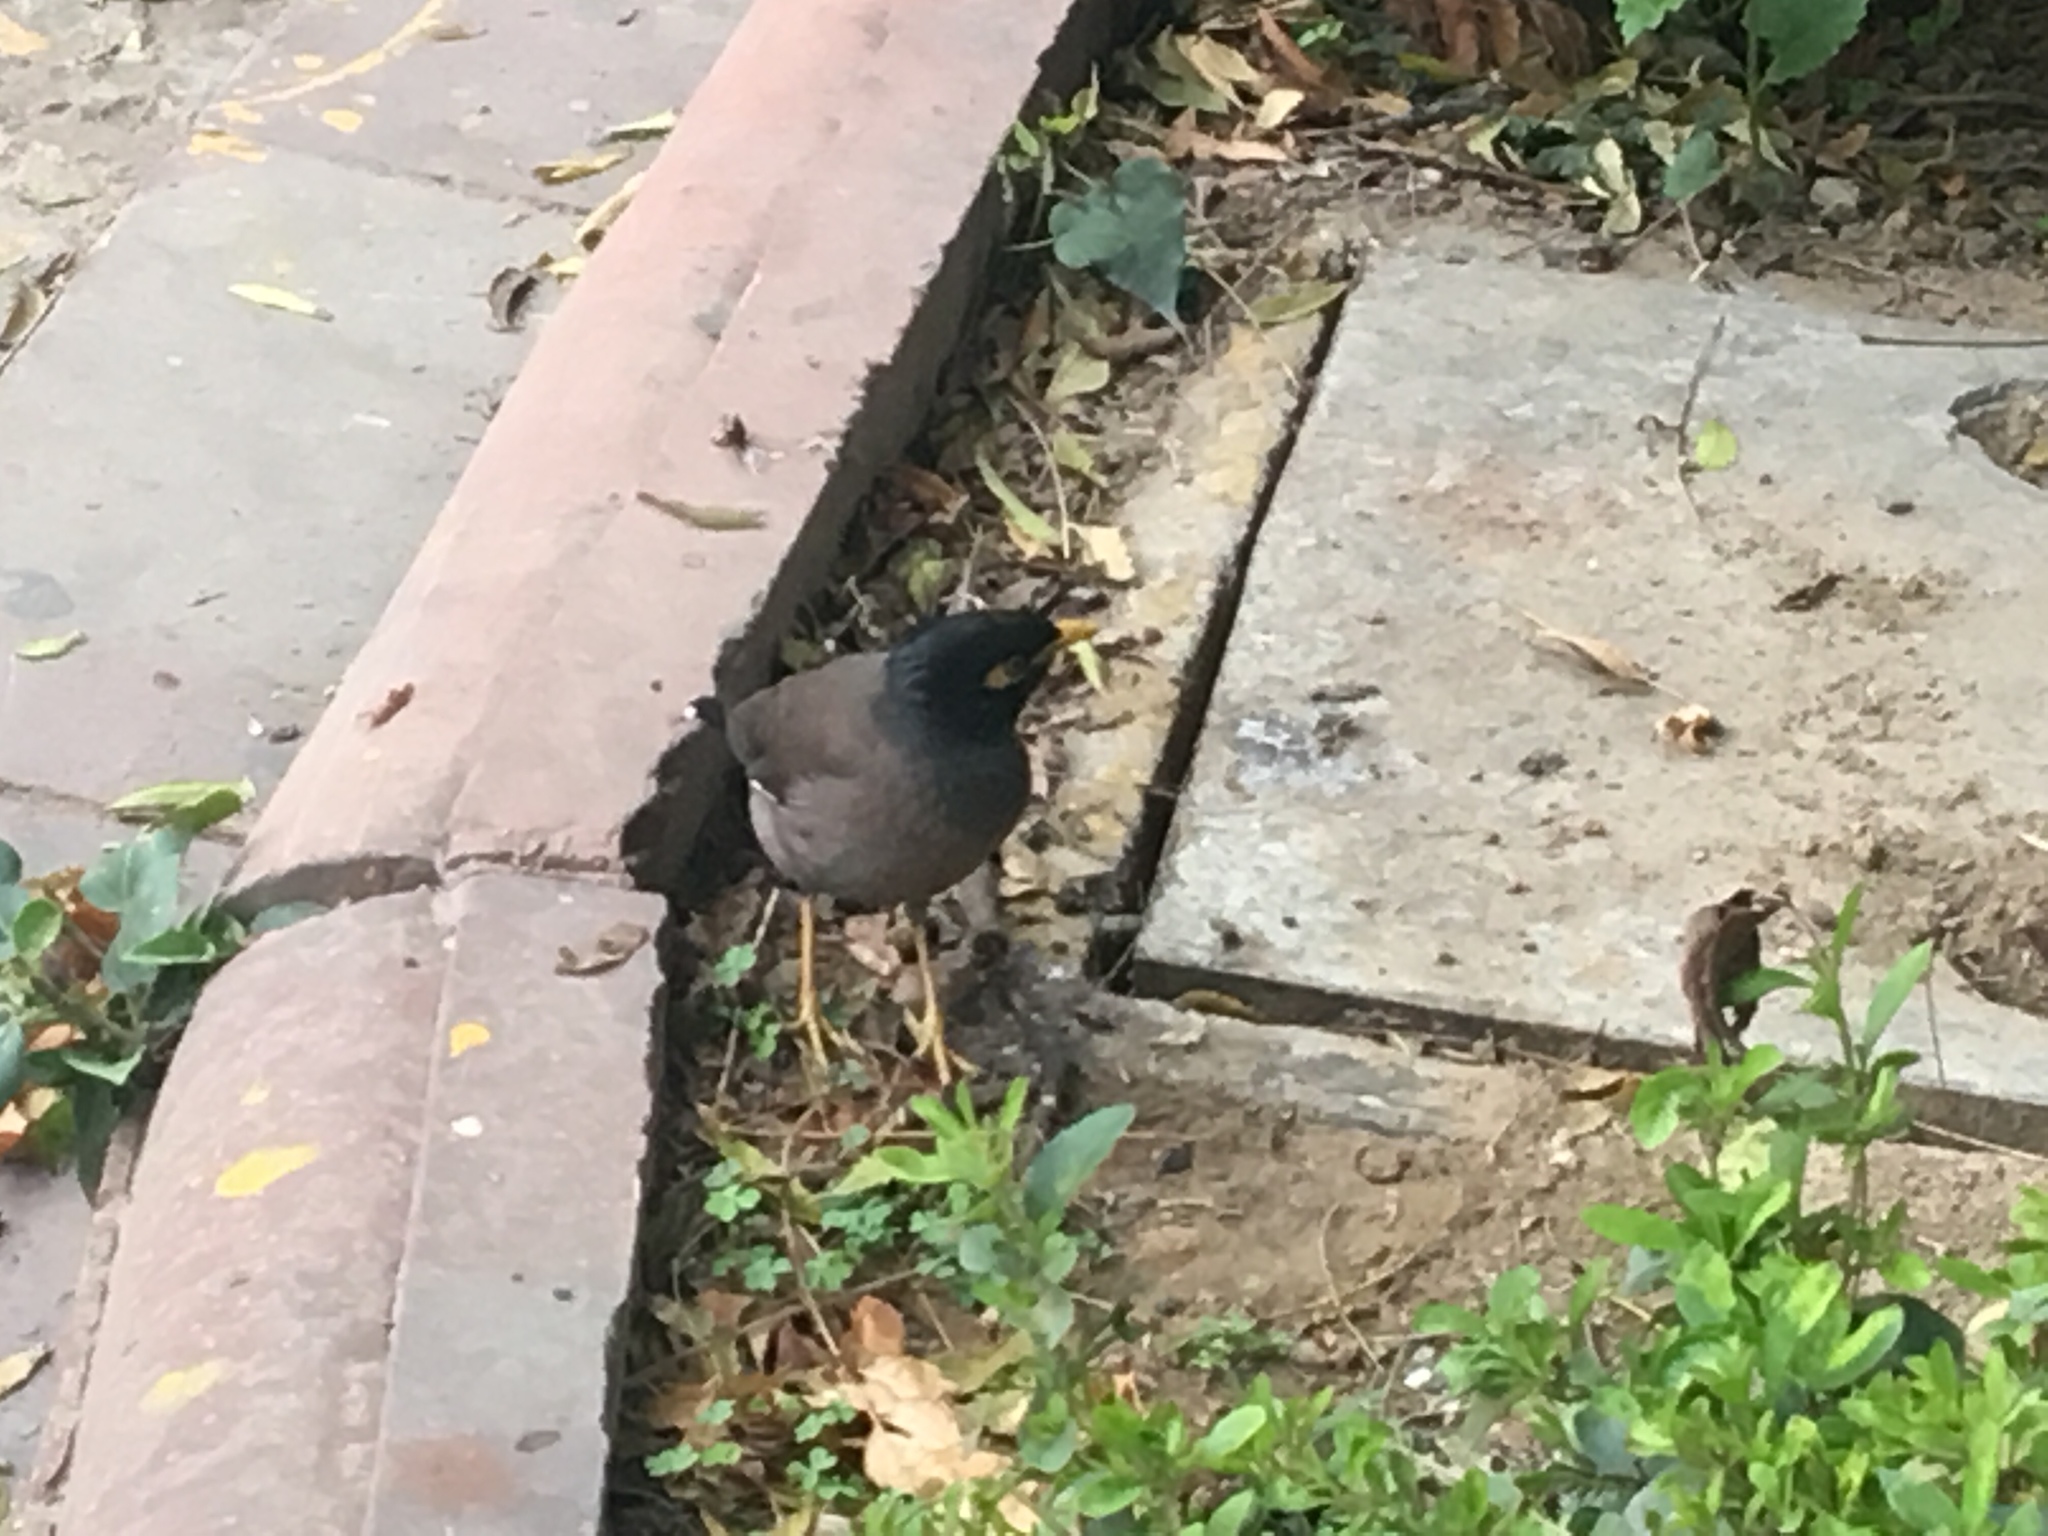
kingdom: Animalia
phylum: Chordata
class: Aves
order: Passeriformes
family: Sturnidae
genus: Acridotheres
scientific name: Acridotheres tristis
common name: Common myna
